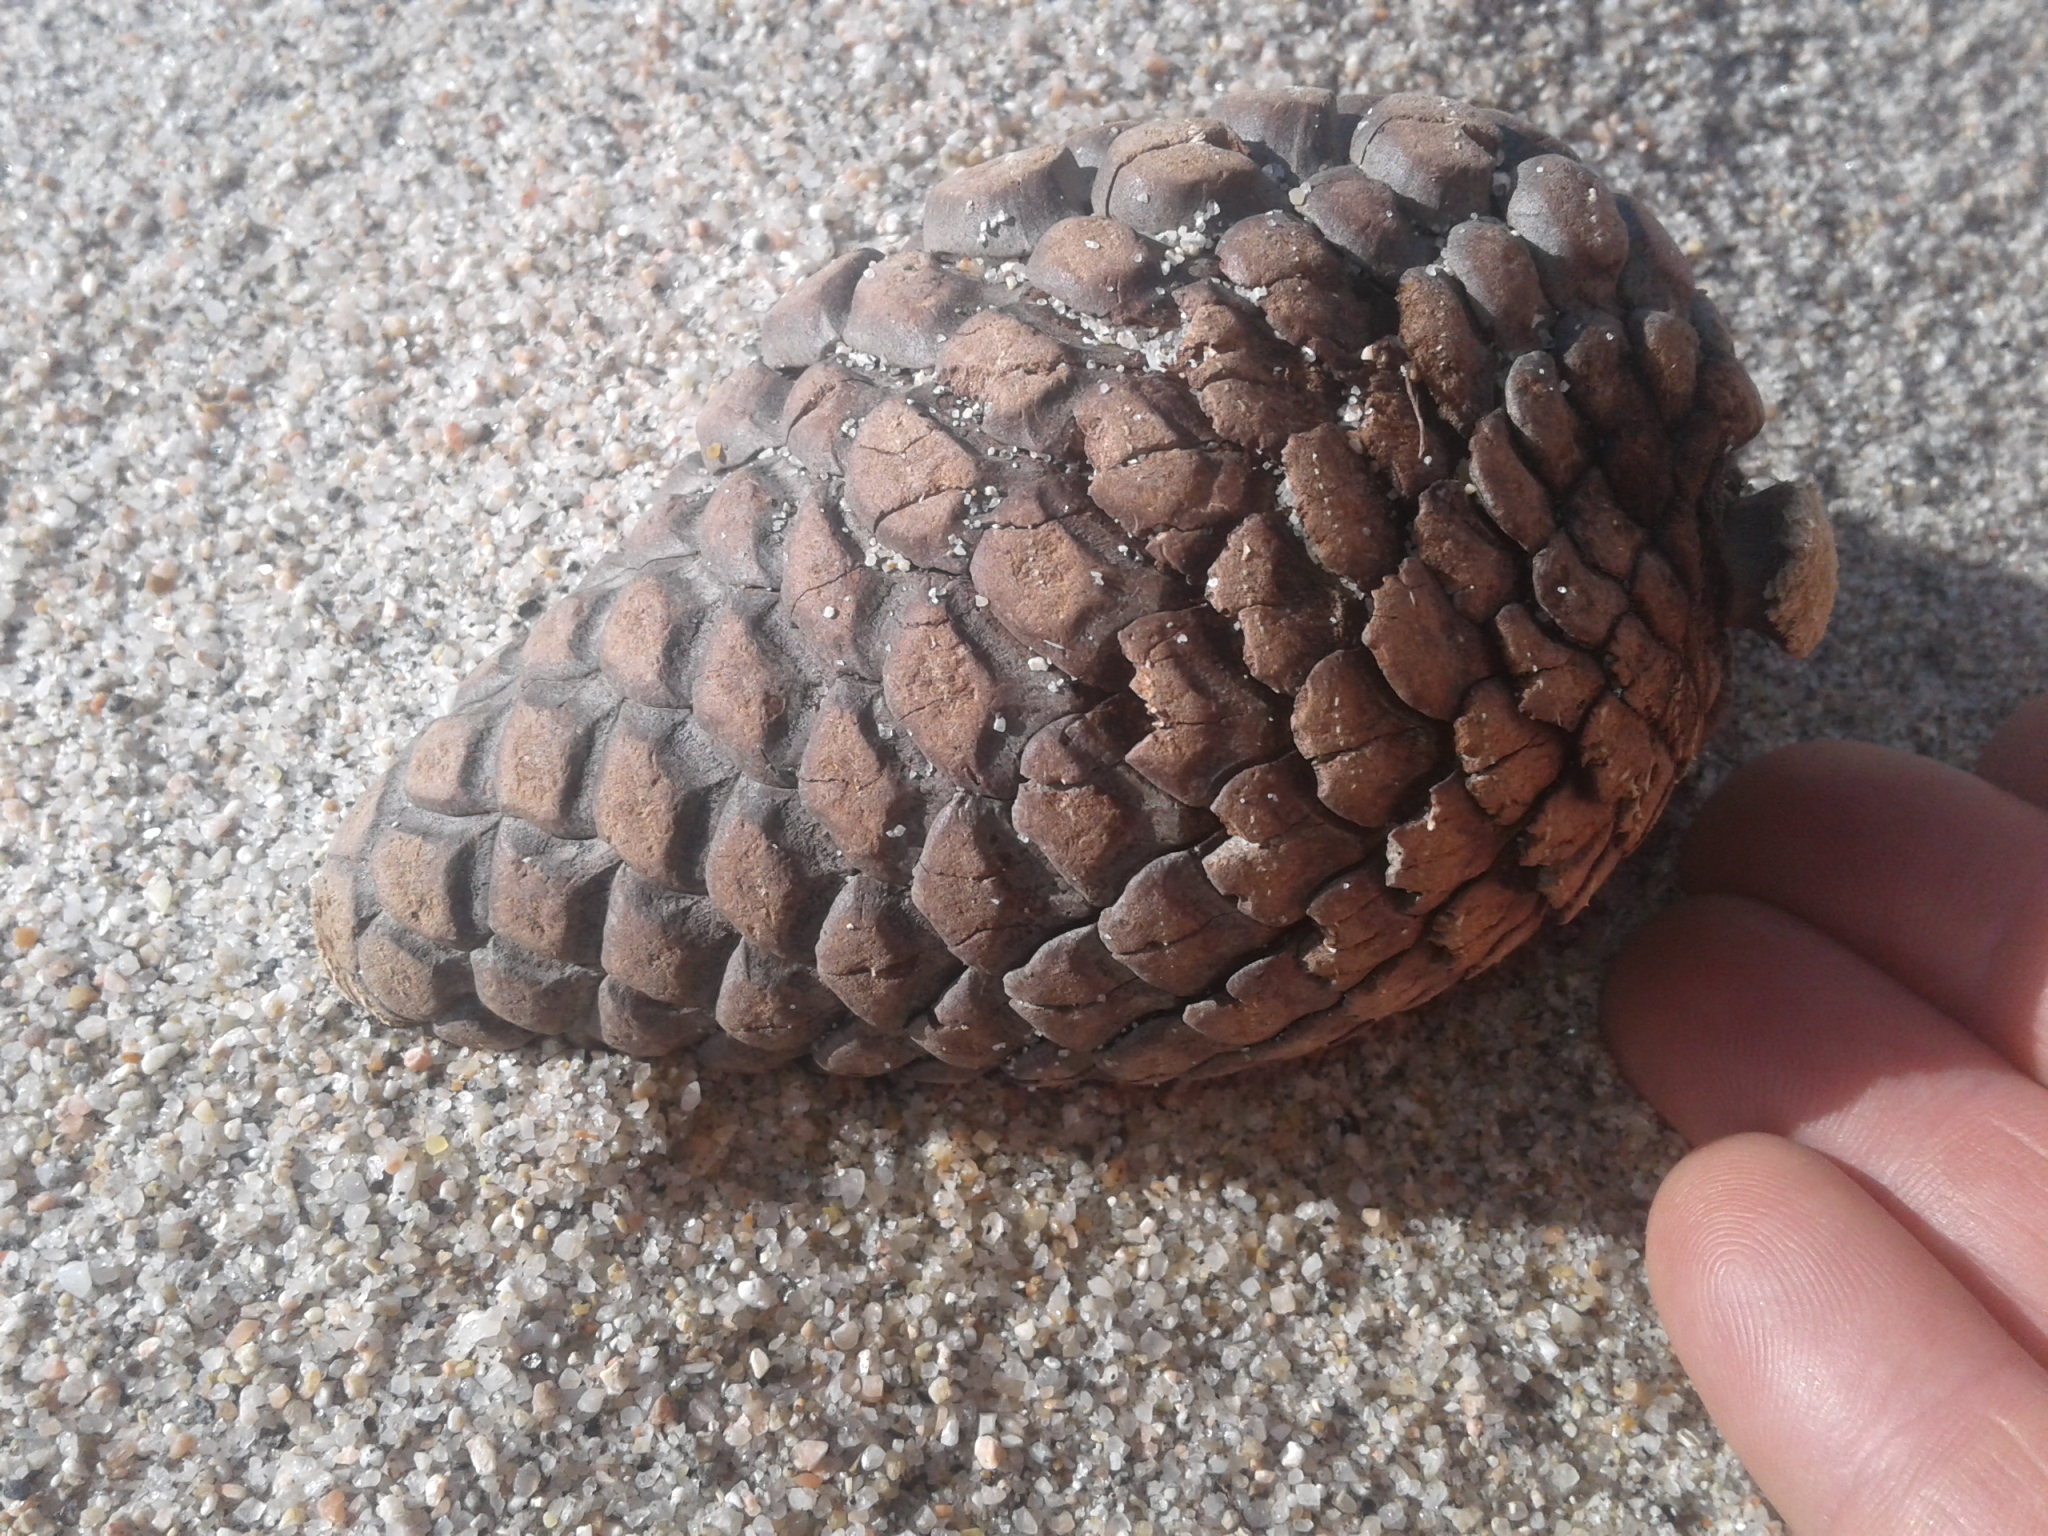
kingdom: Plantae
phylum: Tracheophyta
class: Pinopsida
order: Pinales
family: Pinaceae
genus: Pinus
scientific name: Pinus radiata
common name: Monterey pine
